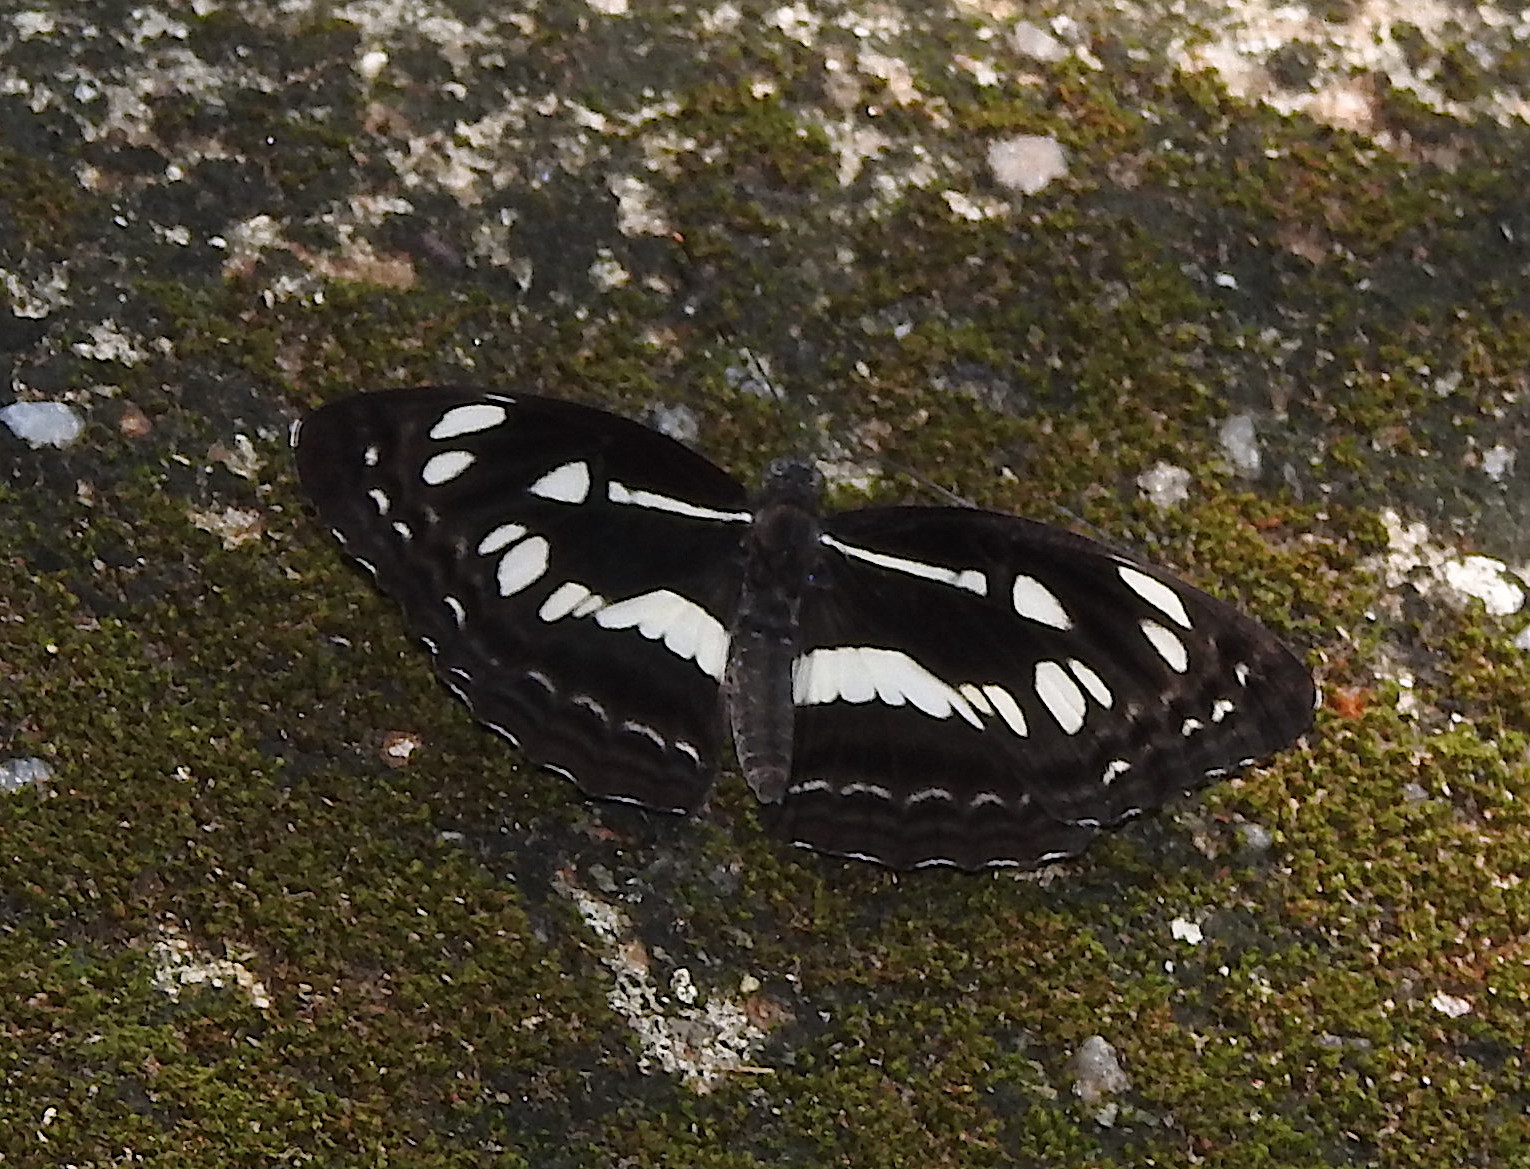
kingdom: Animalia
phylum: Arthropoda
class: Insecta
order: Lepidoptera
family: Nymphalidae
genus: Neptis
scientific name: Neptis jumbah
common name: Chestnut-streaked sailer
